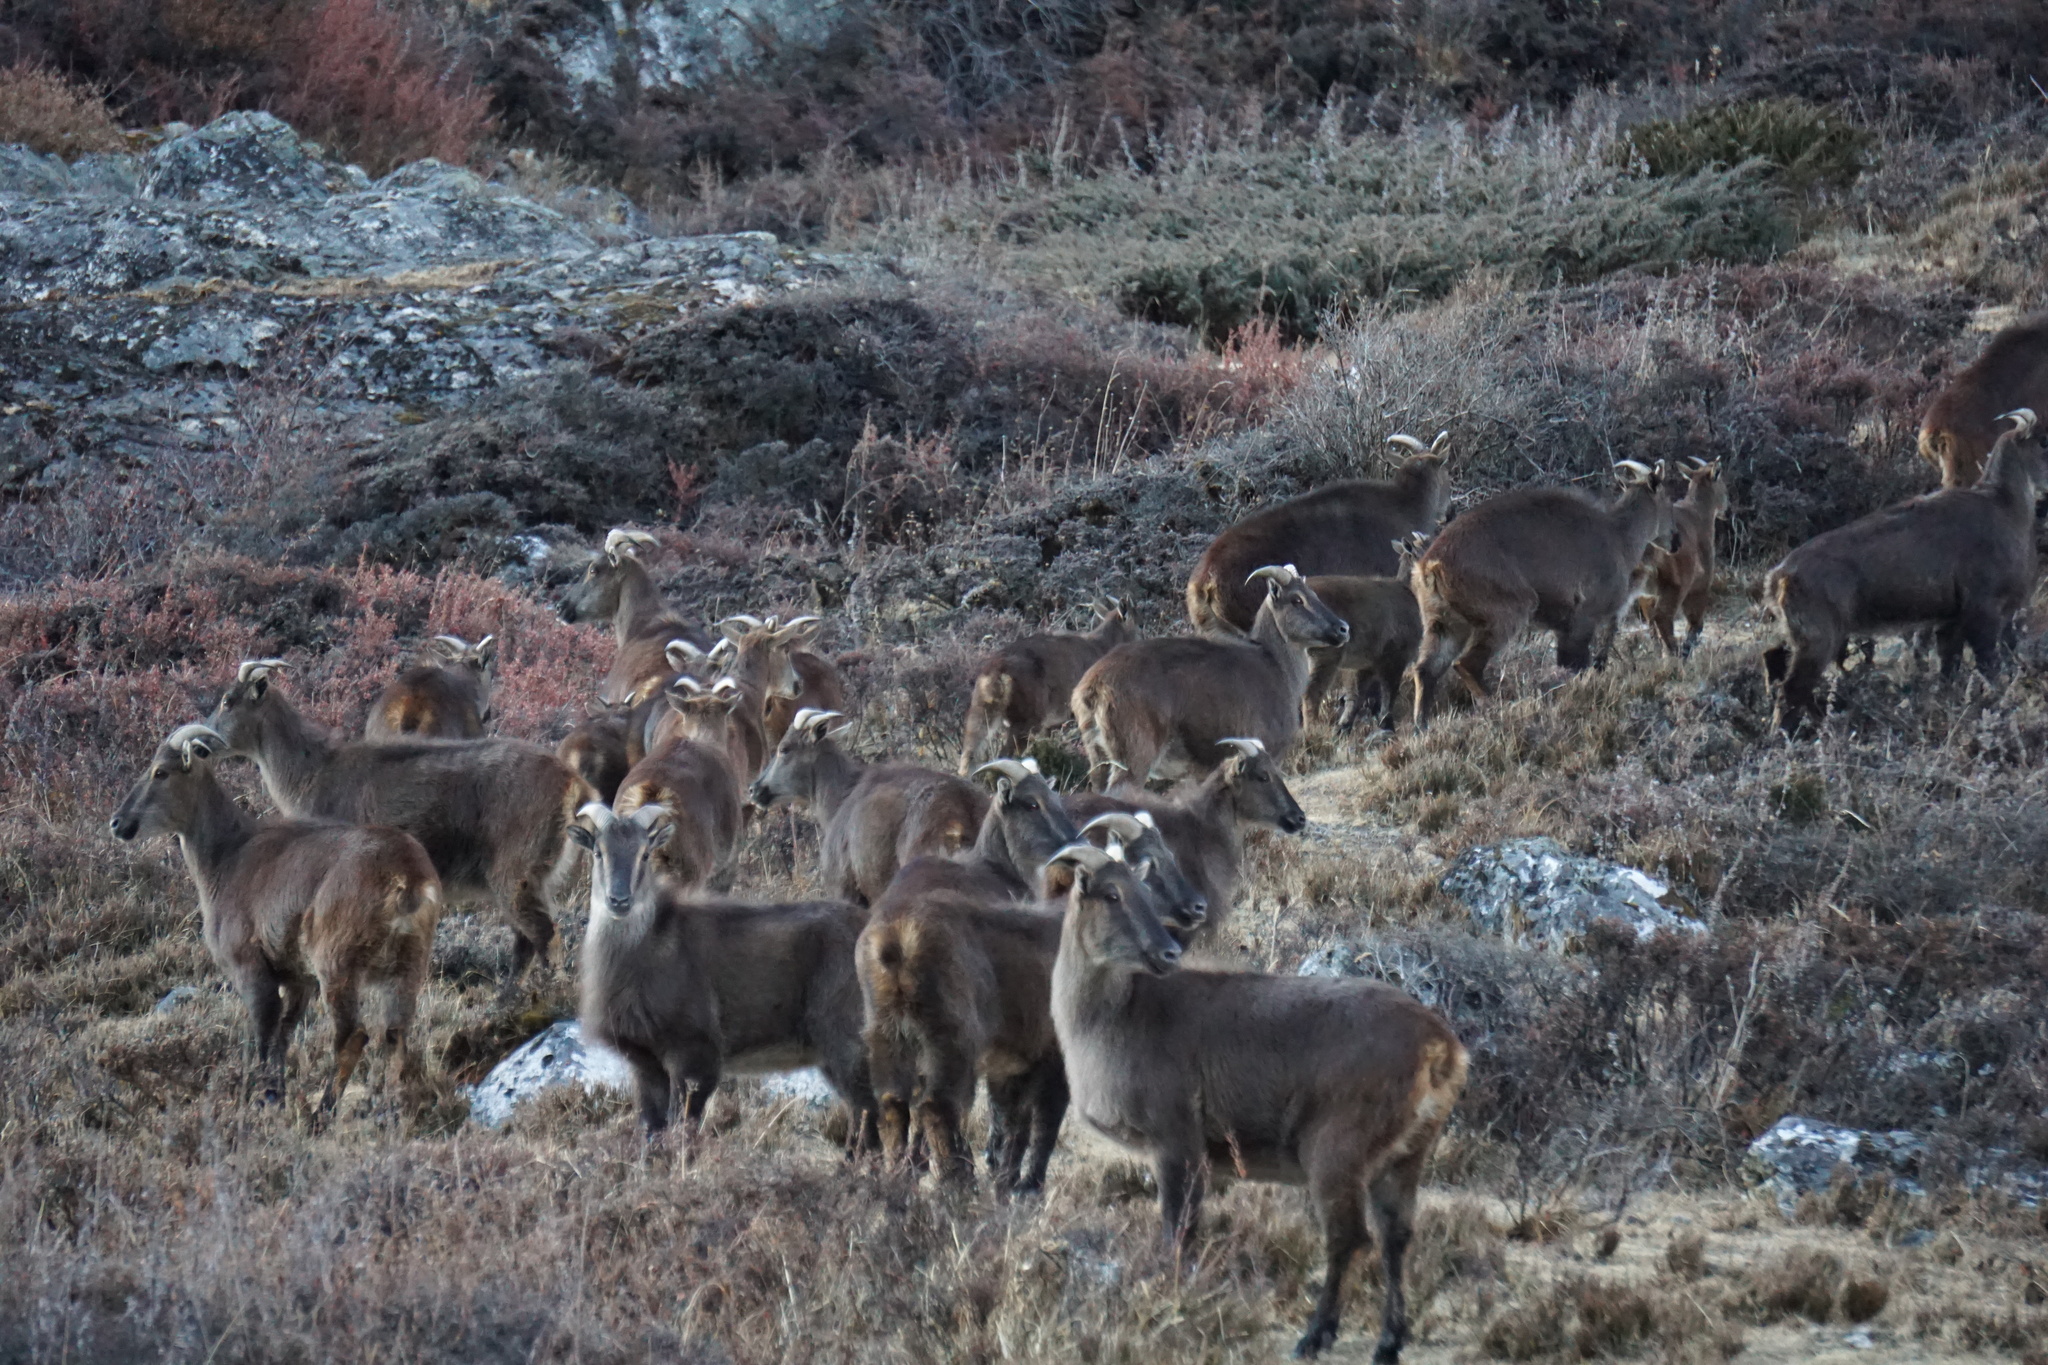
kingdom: Animalia
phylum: Chordata
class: Mammalia
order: Artiodactyla
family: Bovidae
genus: Hemitragus
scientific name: Hemitragus jemlahicus
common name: Himalayan tahr
